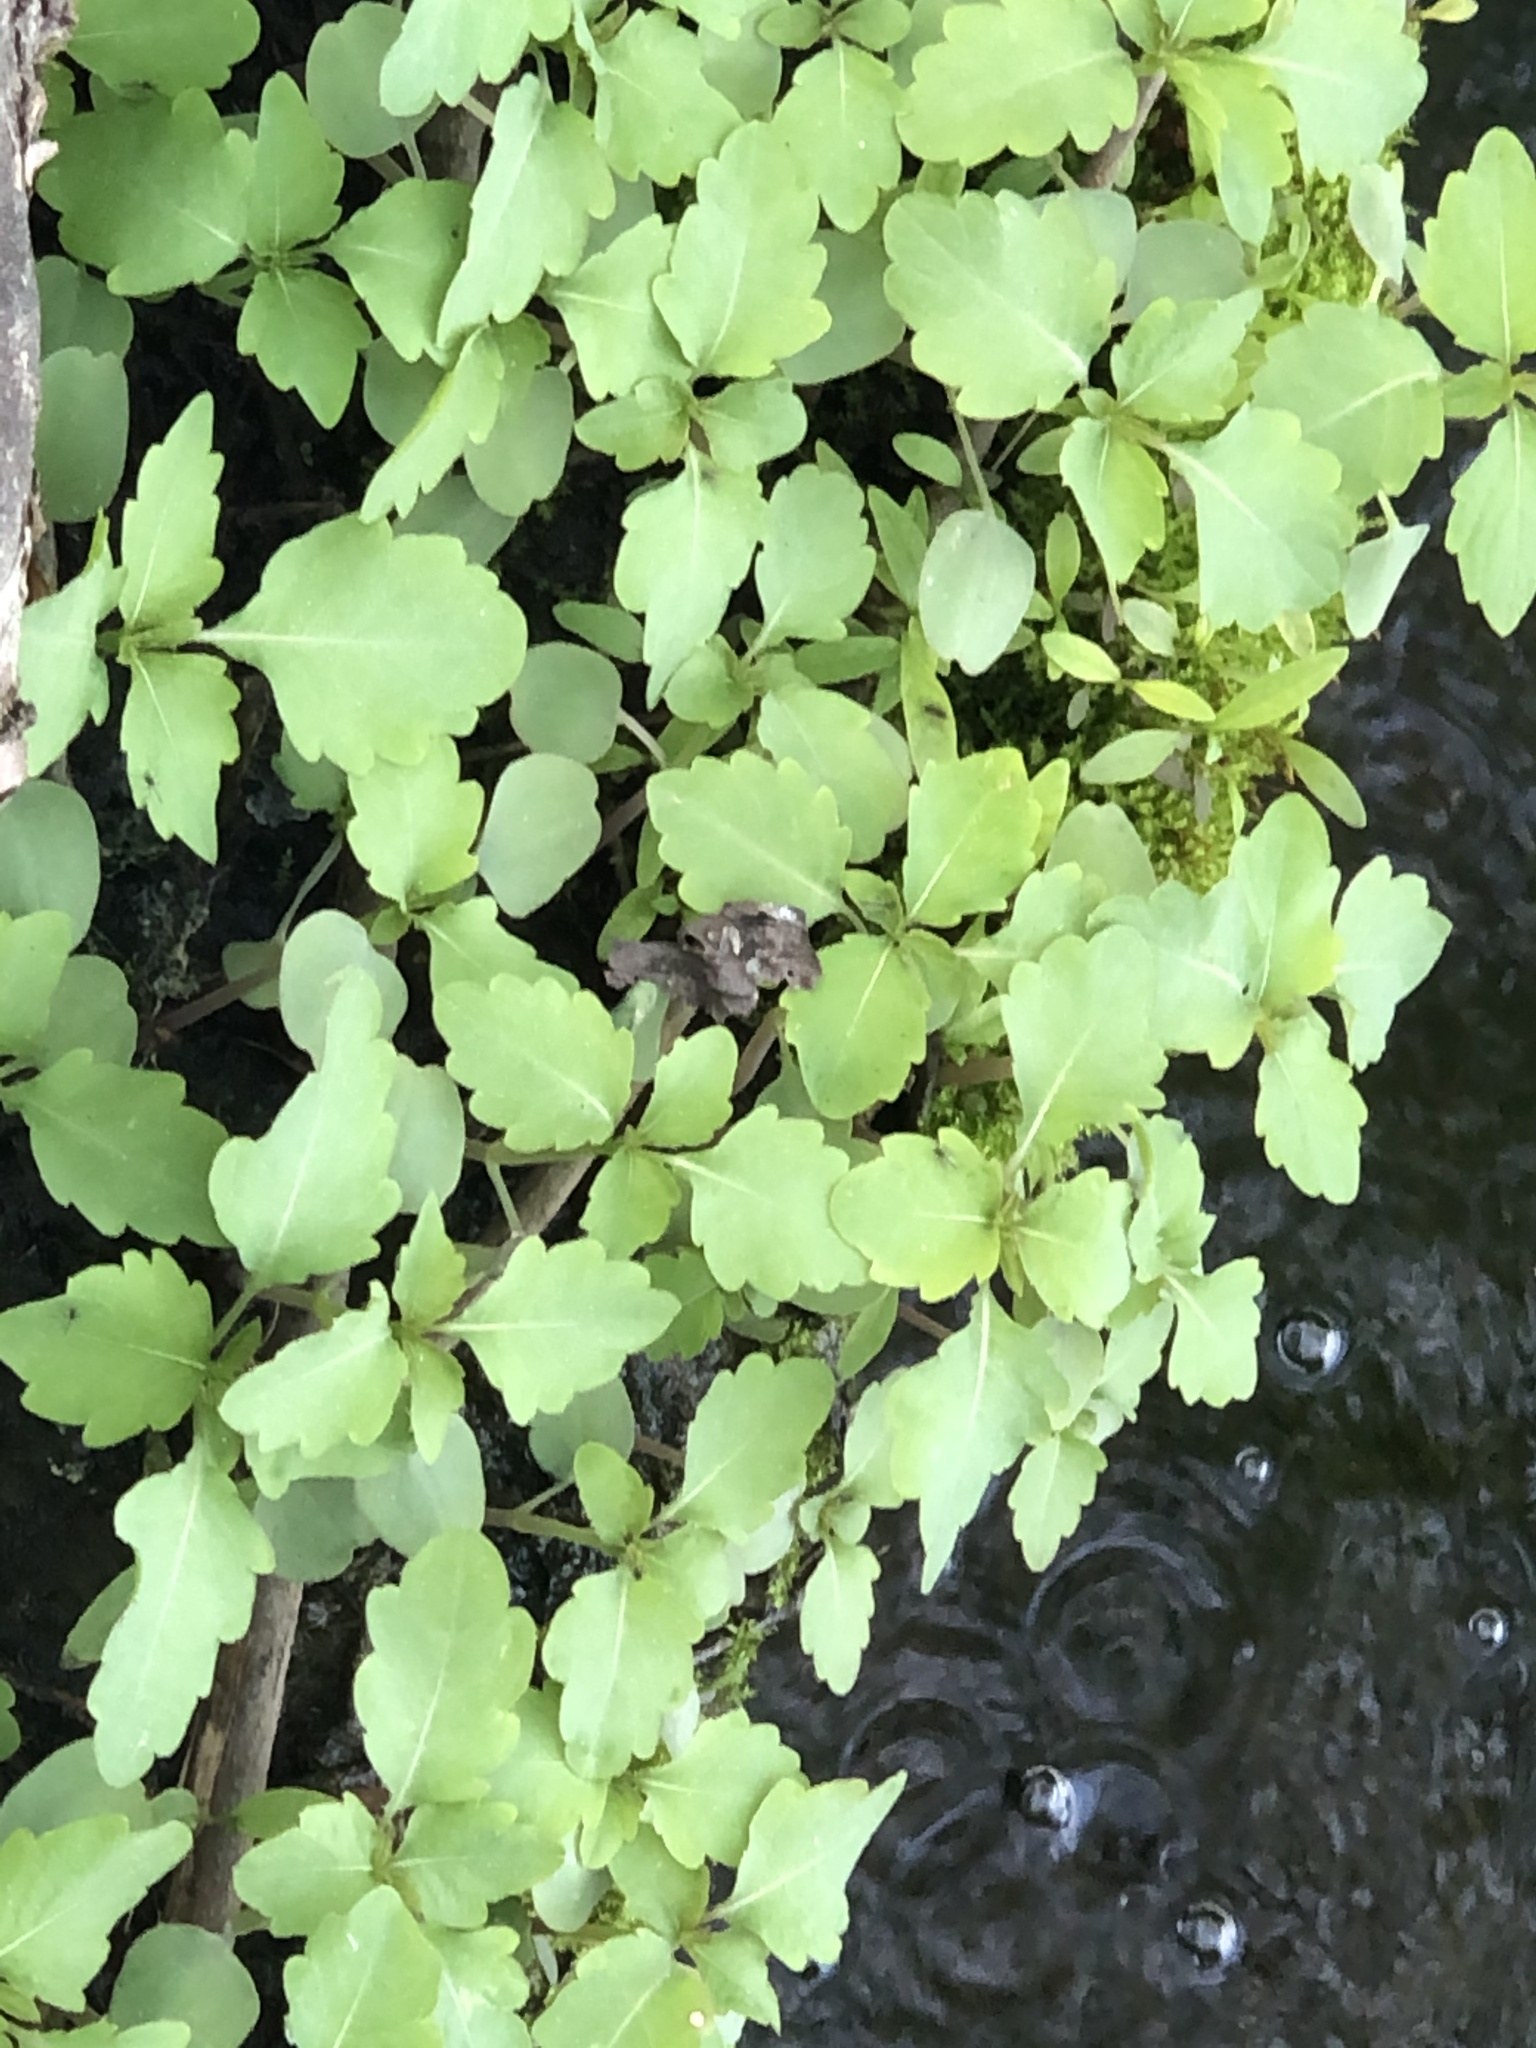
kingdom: Plantae
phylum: Tracheophyta
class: Magnoliopsida
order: Ericales
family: Balsaminaceae
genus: Impatiens
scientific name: Impatiens capensis
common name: Orange balsam
